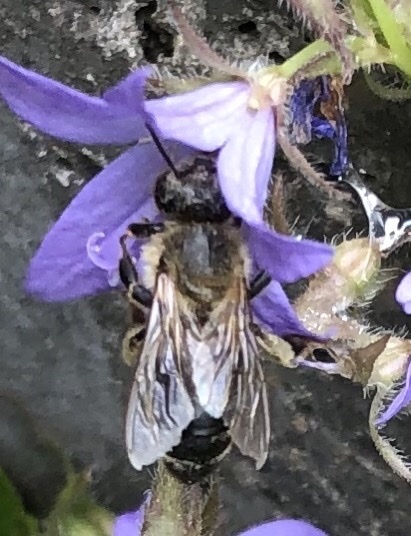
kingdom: Animalia
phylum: Arthropoda
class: Insecta
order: Hymenoptera
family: Apidae
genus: Apis
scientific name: Apis mellifera
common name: Honey bee
